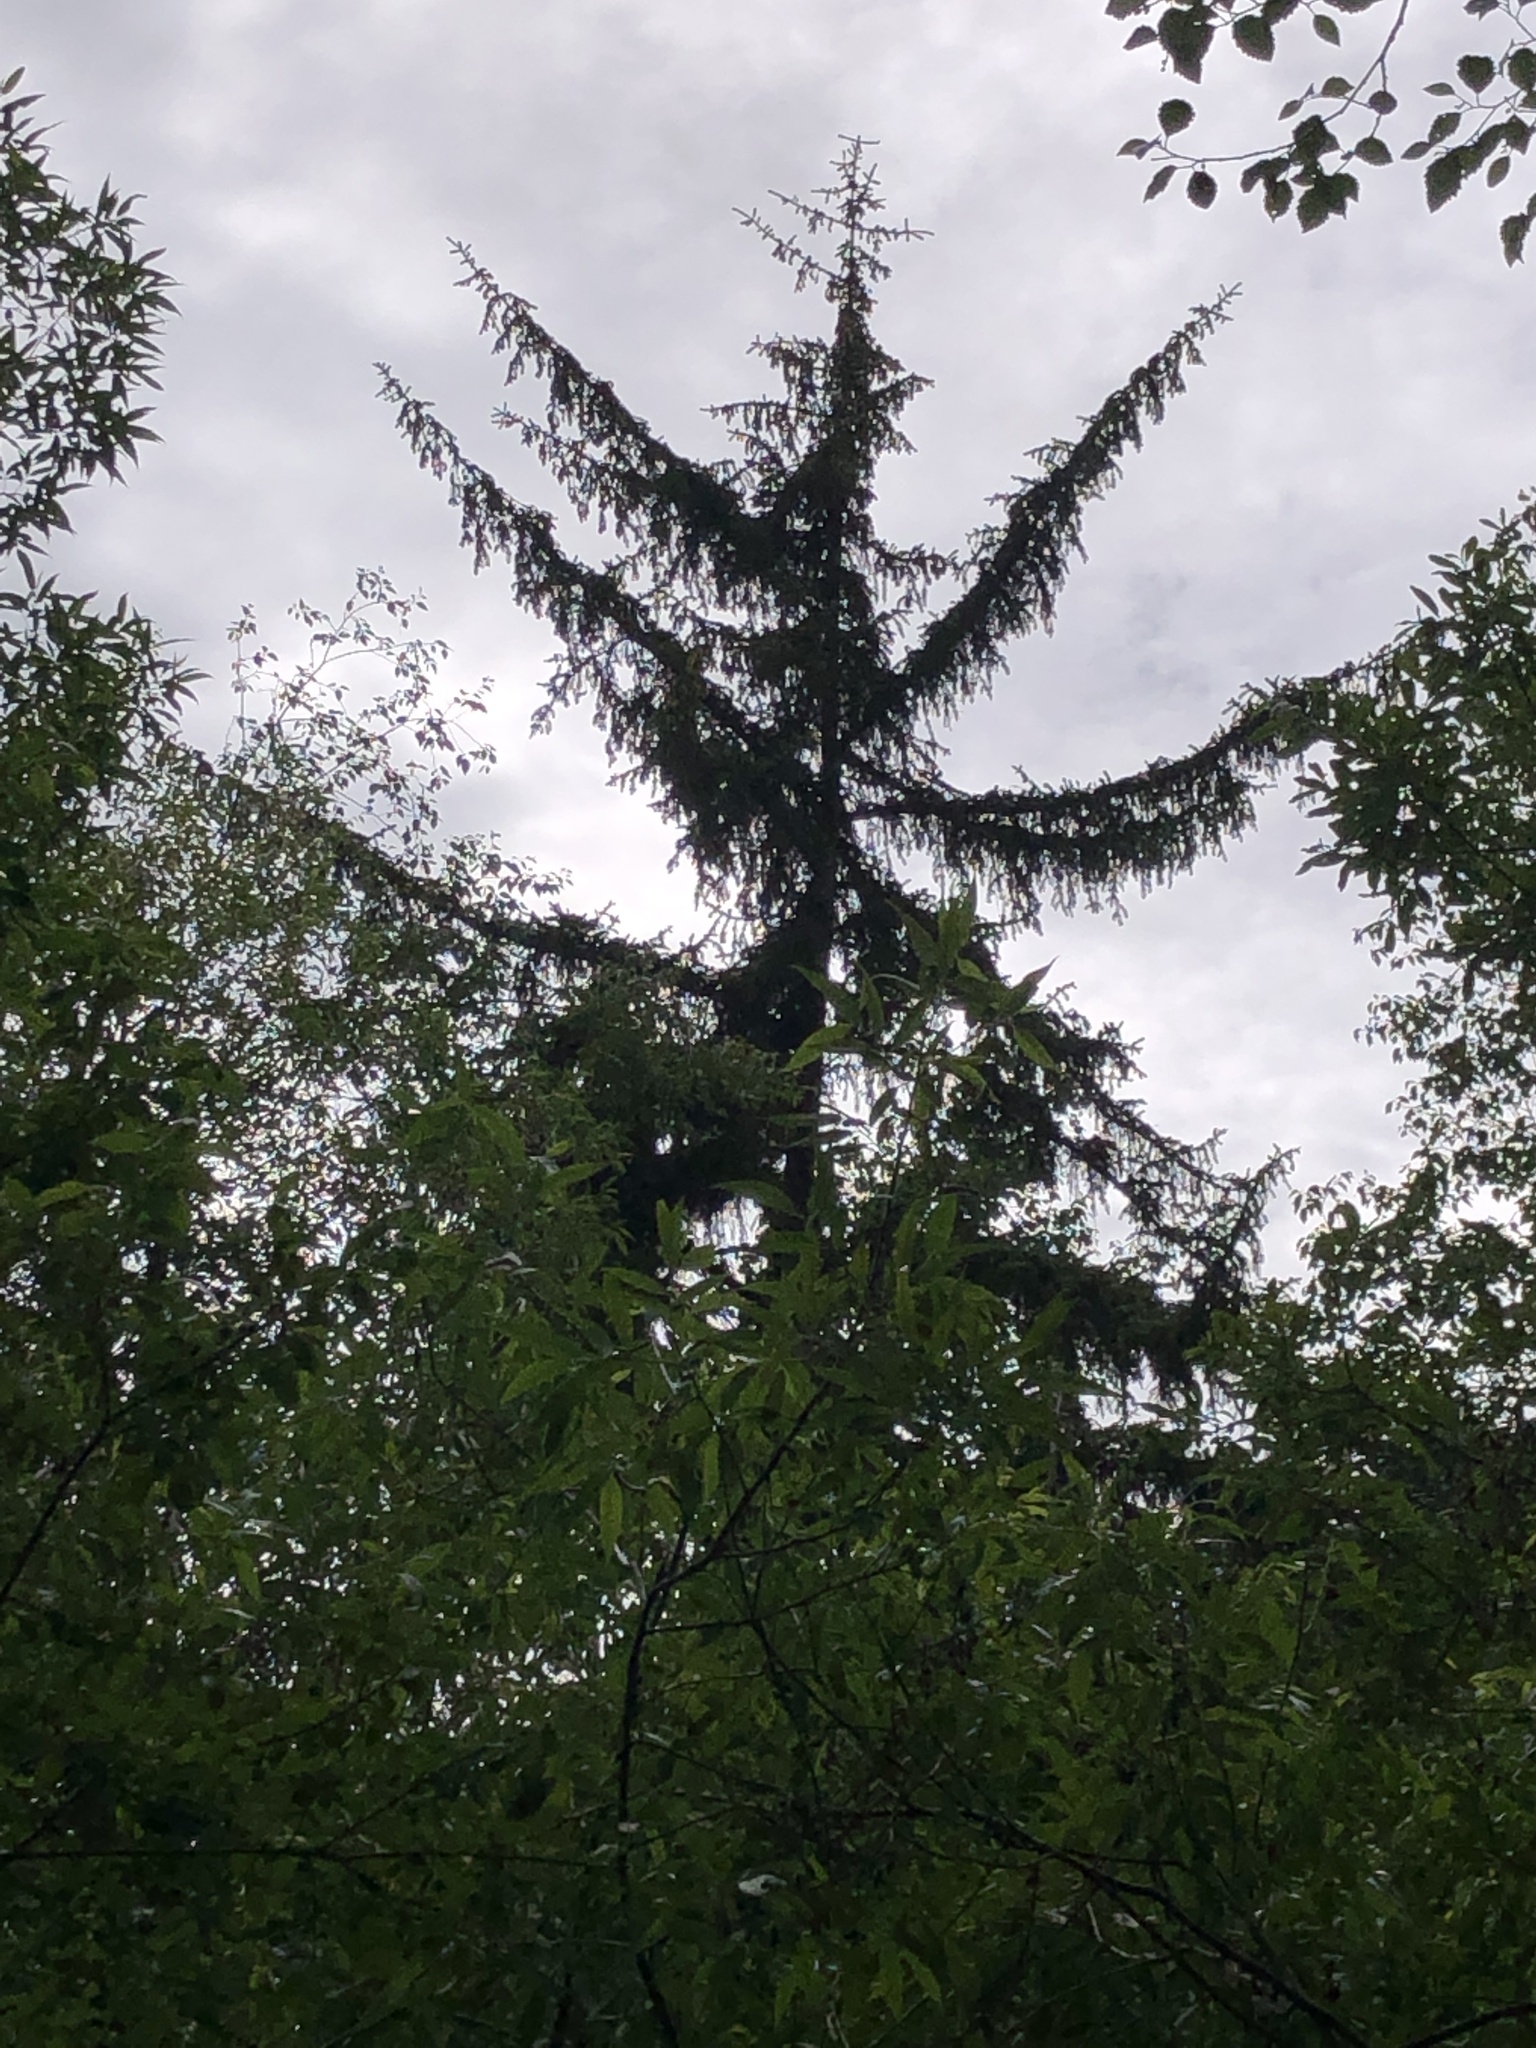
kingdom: Plantae
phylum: Tracheophyta
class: Pinopsida
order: Pinales
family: Pinaceae
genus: Picea
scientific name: Picea sitchensis
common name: Sitka spruce
